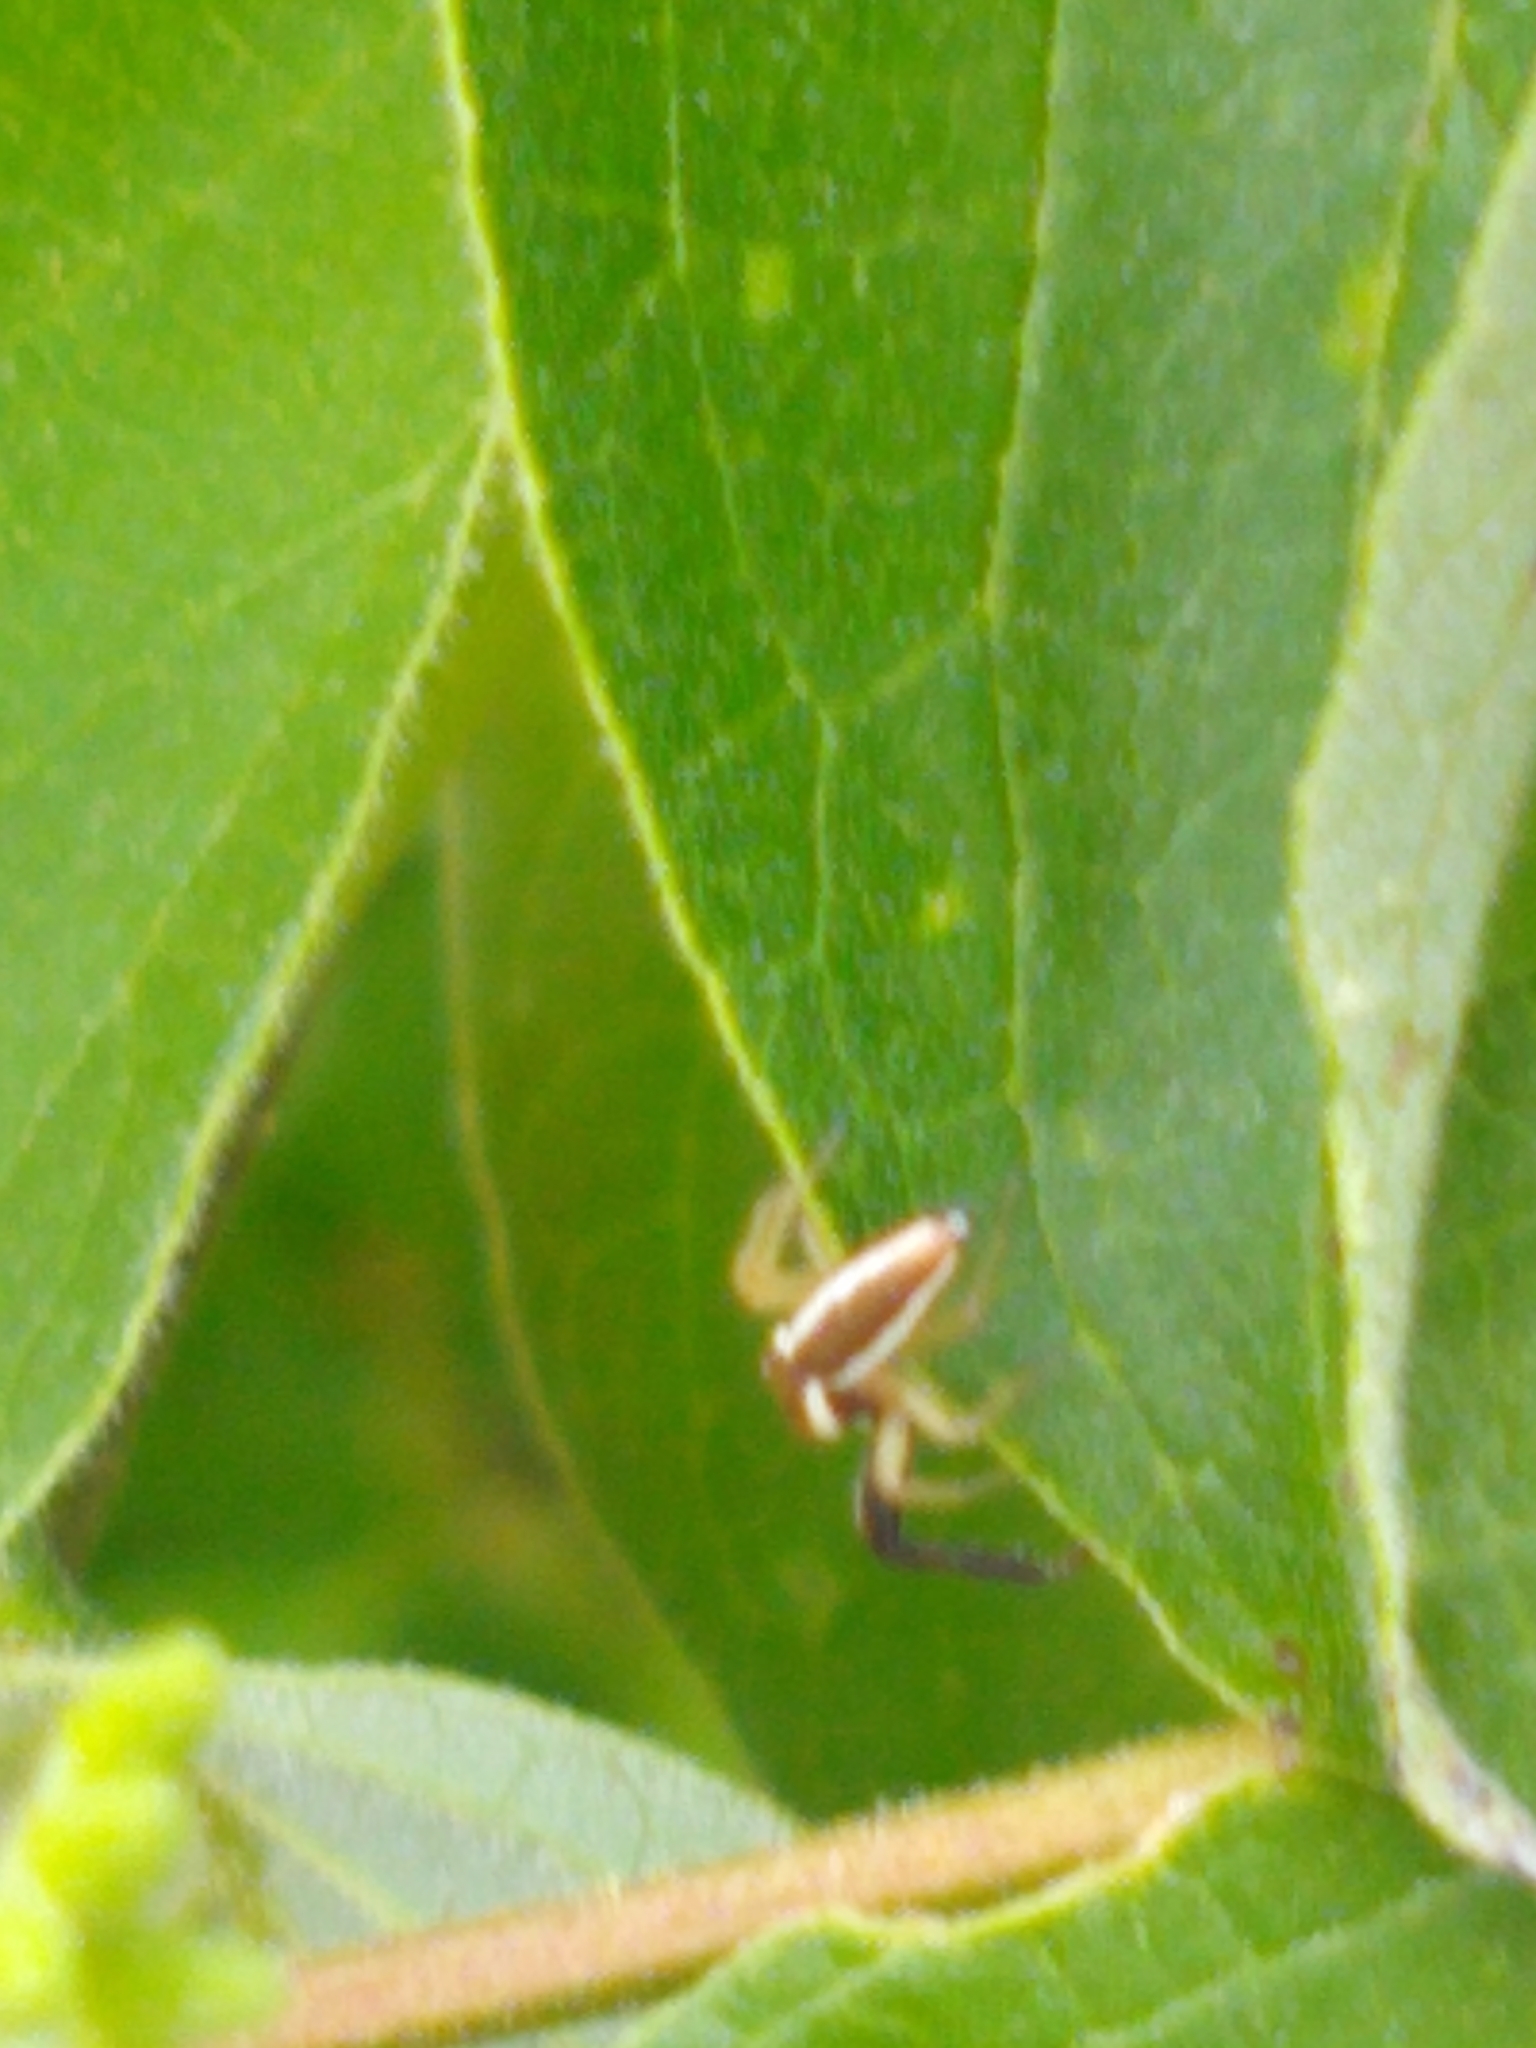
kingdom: Animalia
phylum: Arthropoda
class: Arachnida
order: Araneae
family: Salticidae
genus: Hentzia
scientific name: Hentzia palmarum
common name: Common hentz jumping spider
